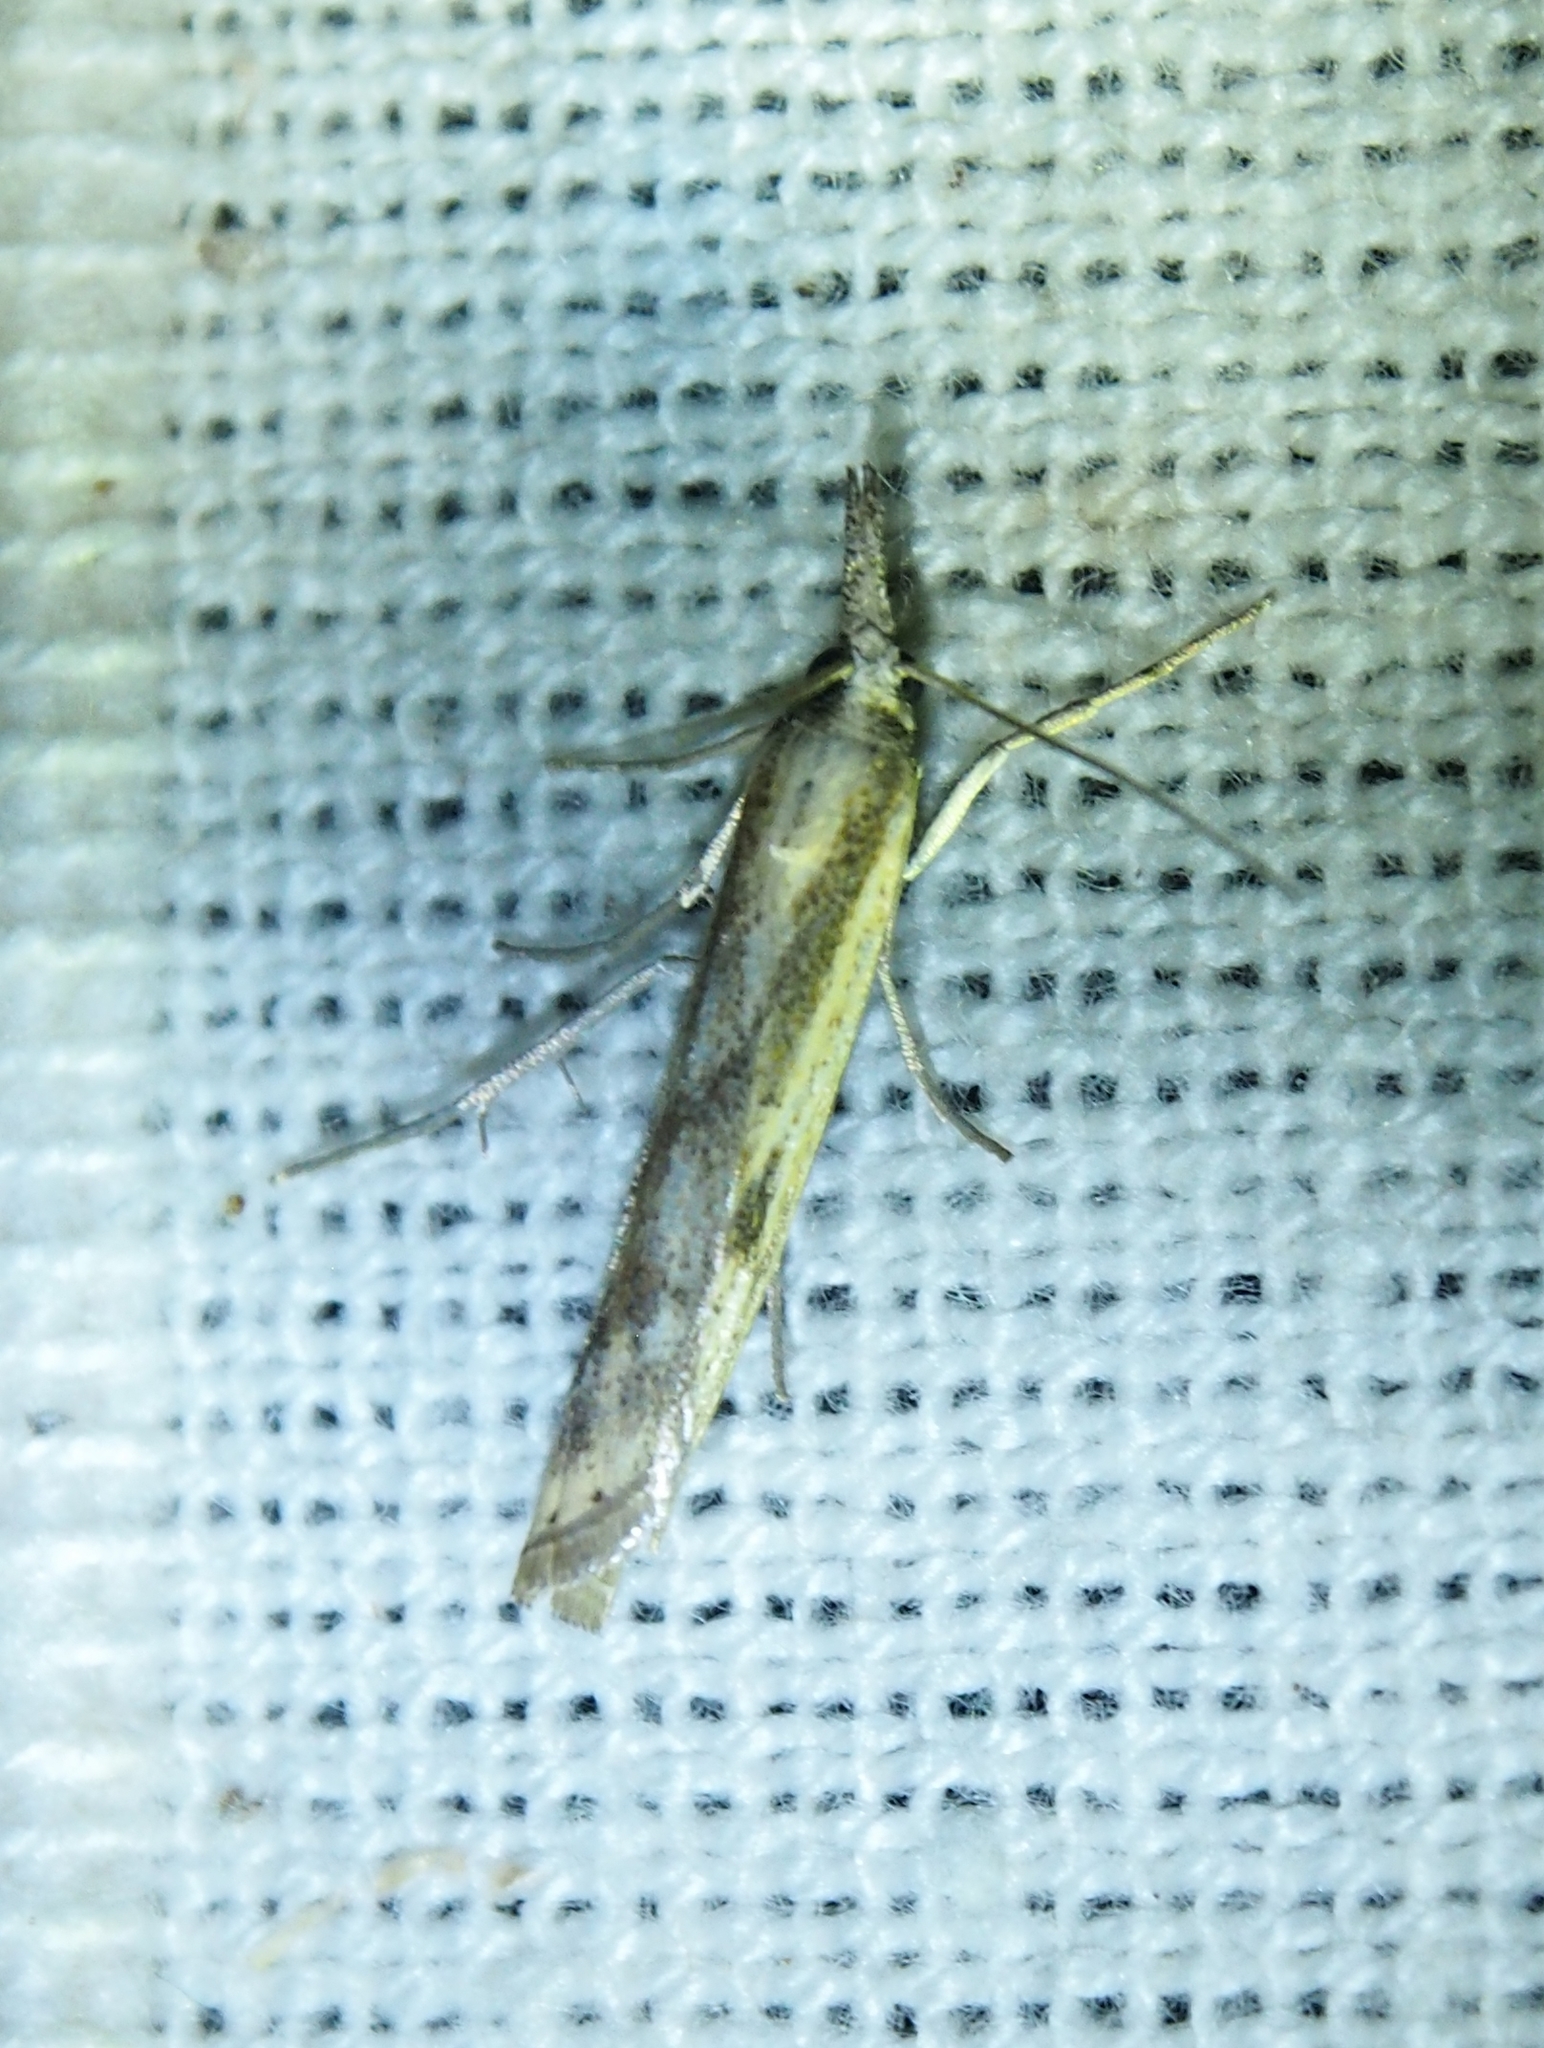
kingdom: Animalia
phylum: Arthropoda
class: Insecta
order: Lepidoptera
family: Crambidae
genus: Agriphila
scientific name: Agriphila inquinatella
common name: Barred grass-veneer
